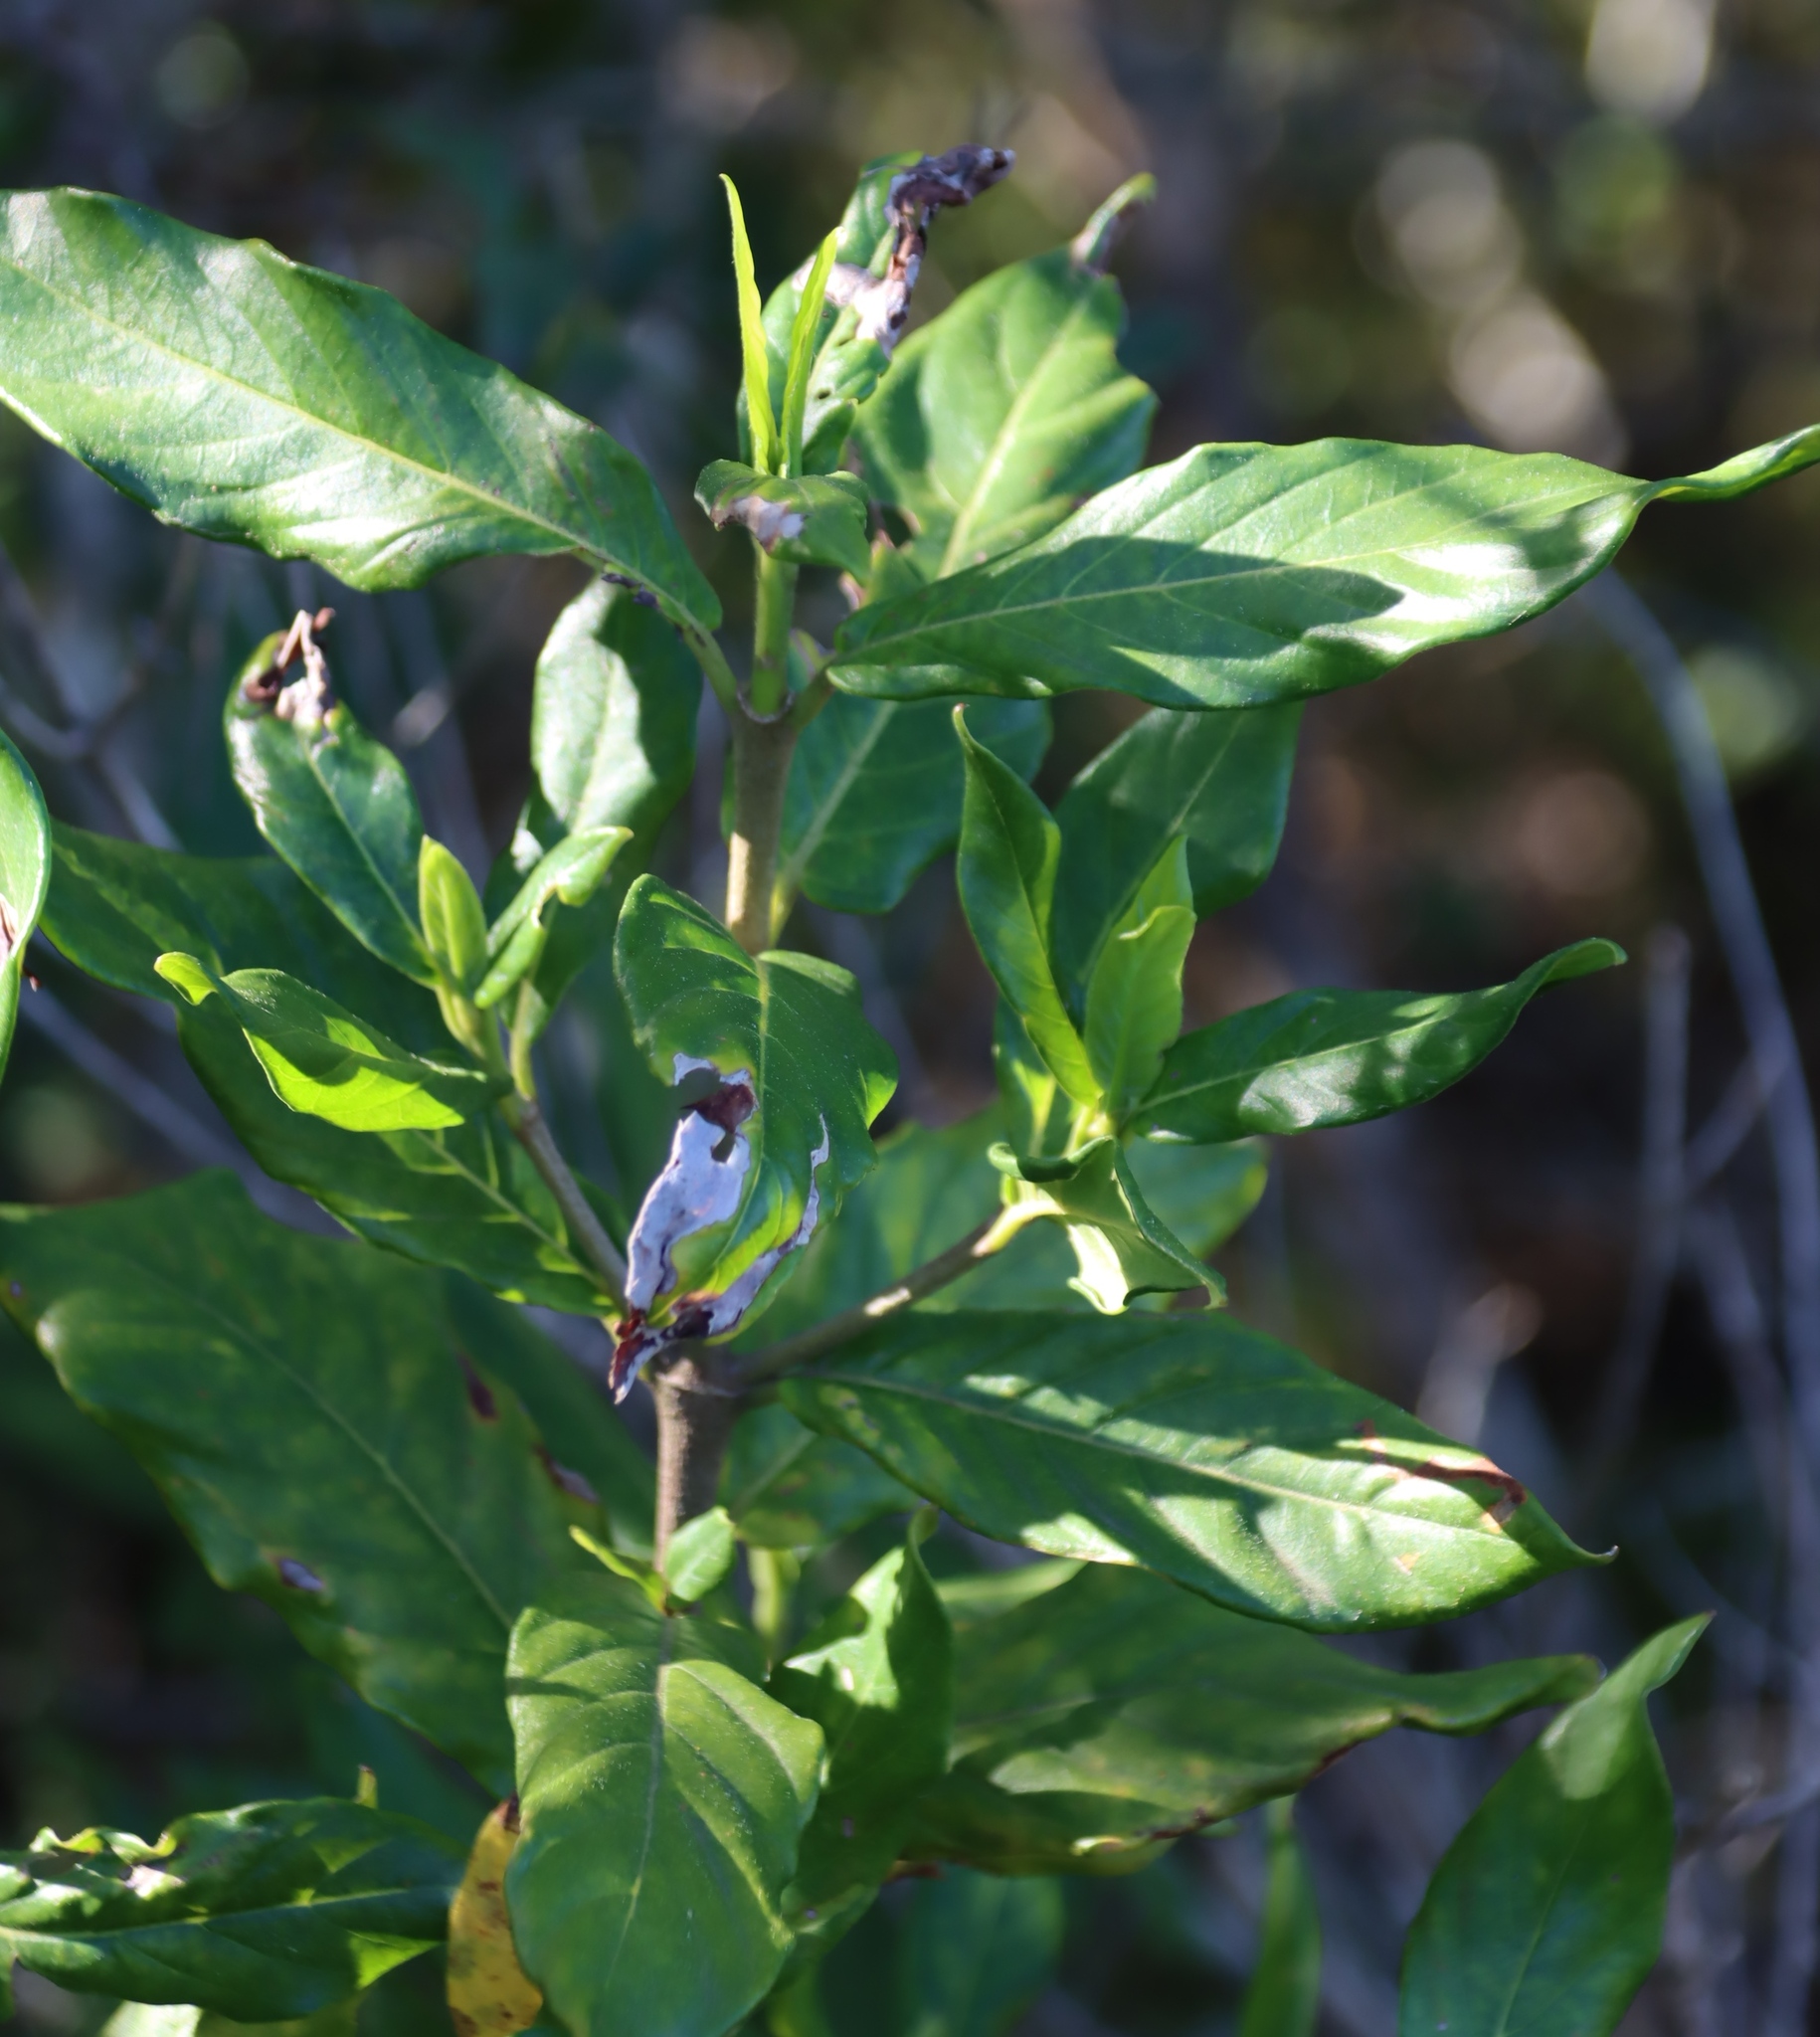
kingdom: Plantae
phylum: Tracheophyta
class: Magnoliopsida
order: Gentianales
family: Rubiaceae
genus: Burchellia
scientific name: Burchellia bubalina
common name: Wild pomegranate
